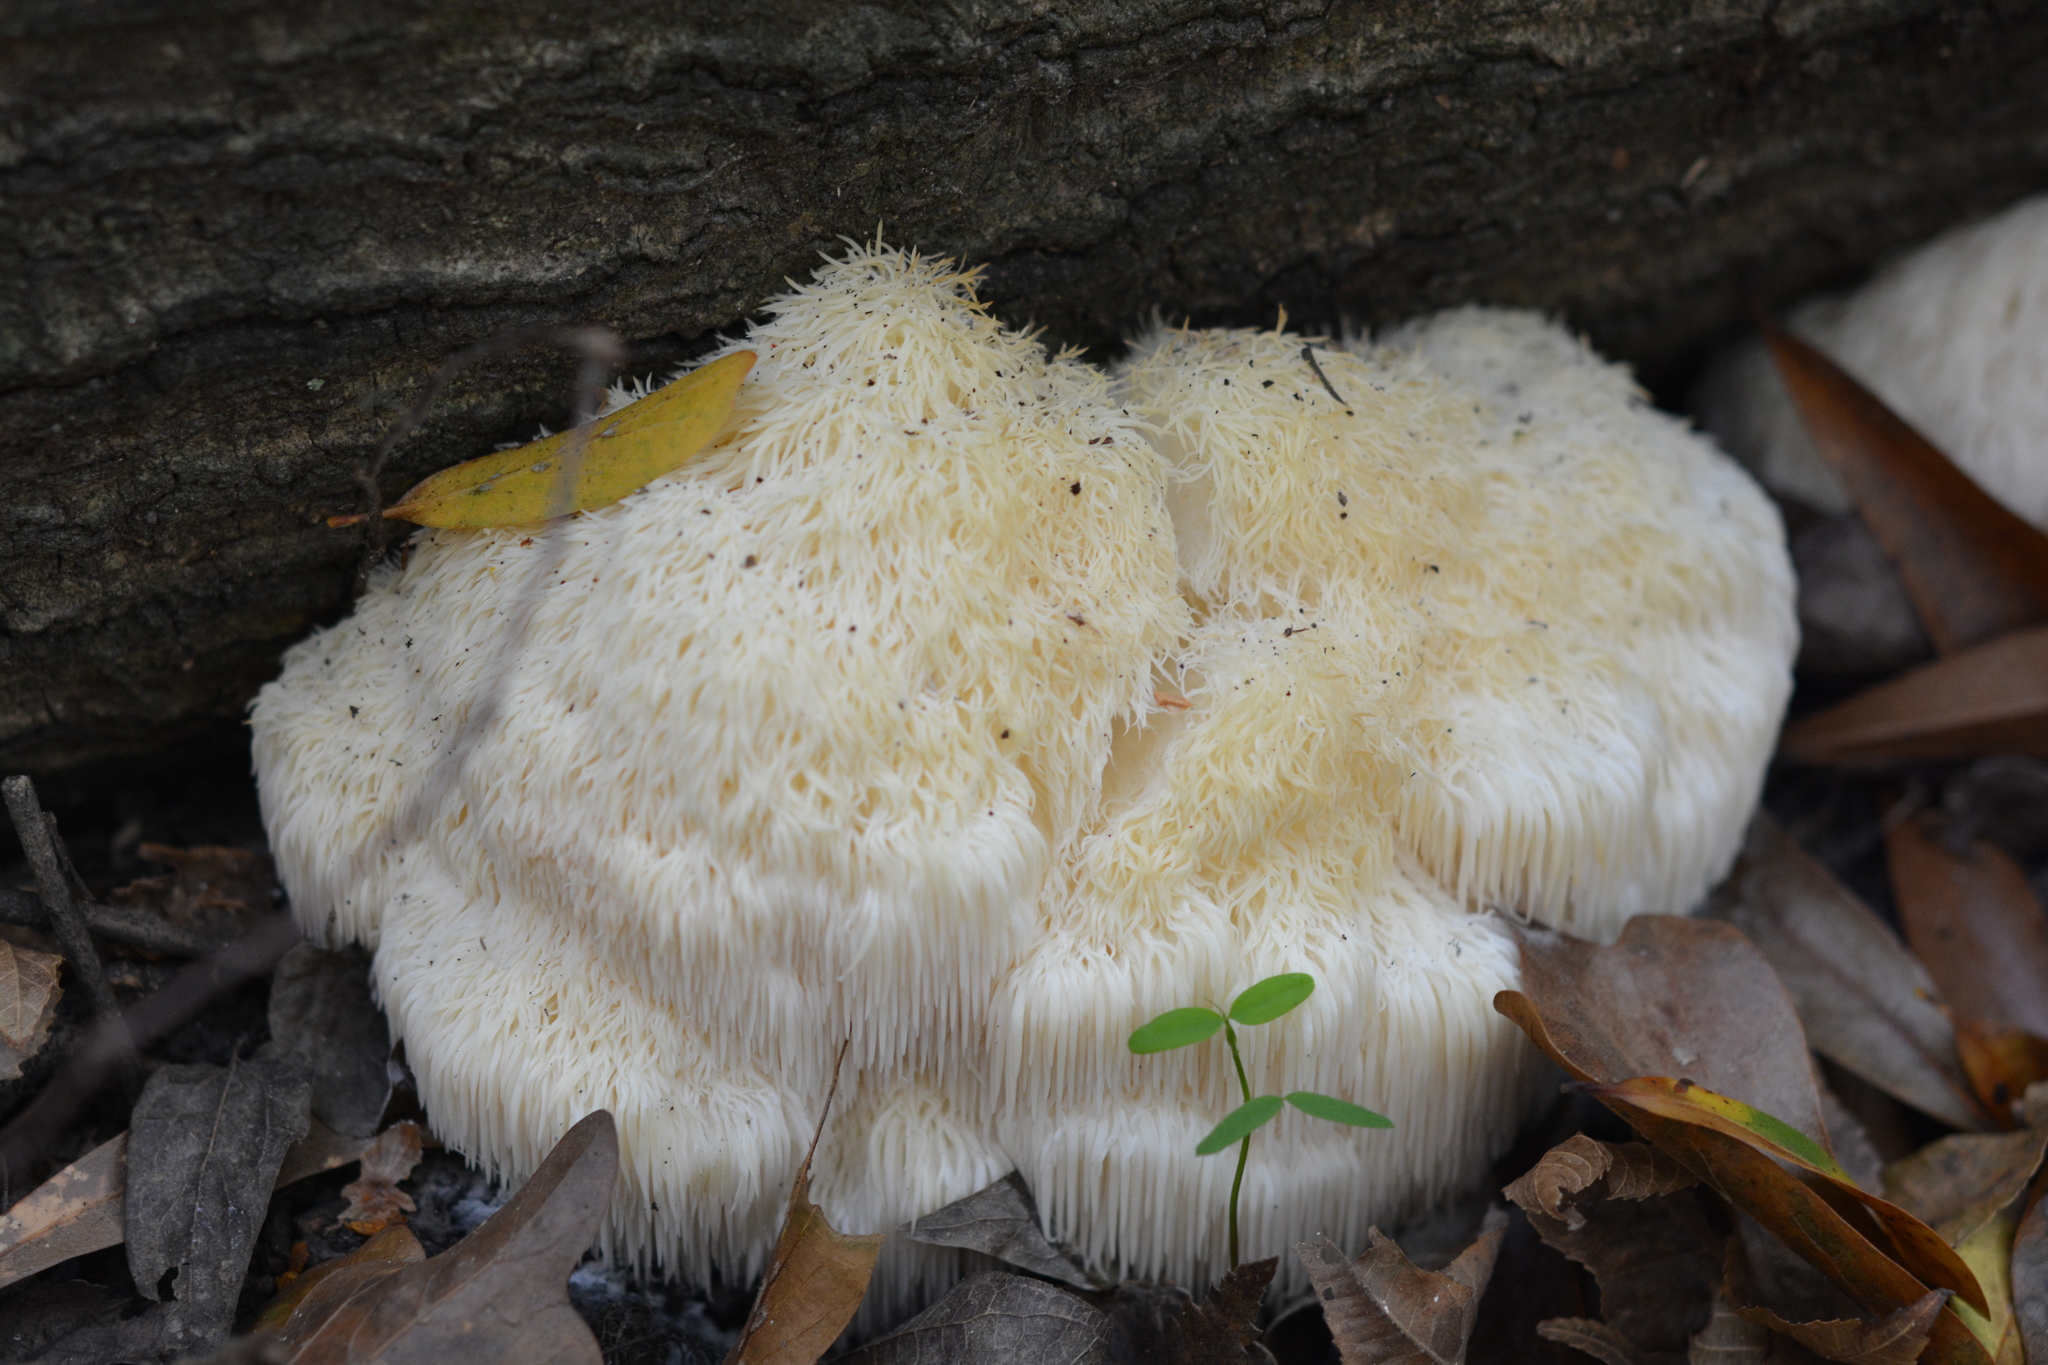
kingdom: Fungi
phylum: Basidiomycota
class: Agaricomycetes
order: Russulales
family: Hericiaceae
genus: Hericium
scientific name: Hericium erinaceus
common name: Bearded tooth
